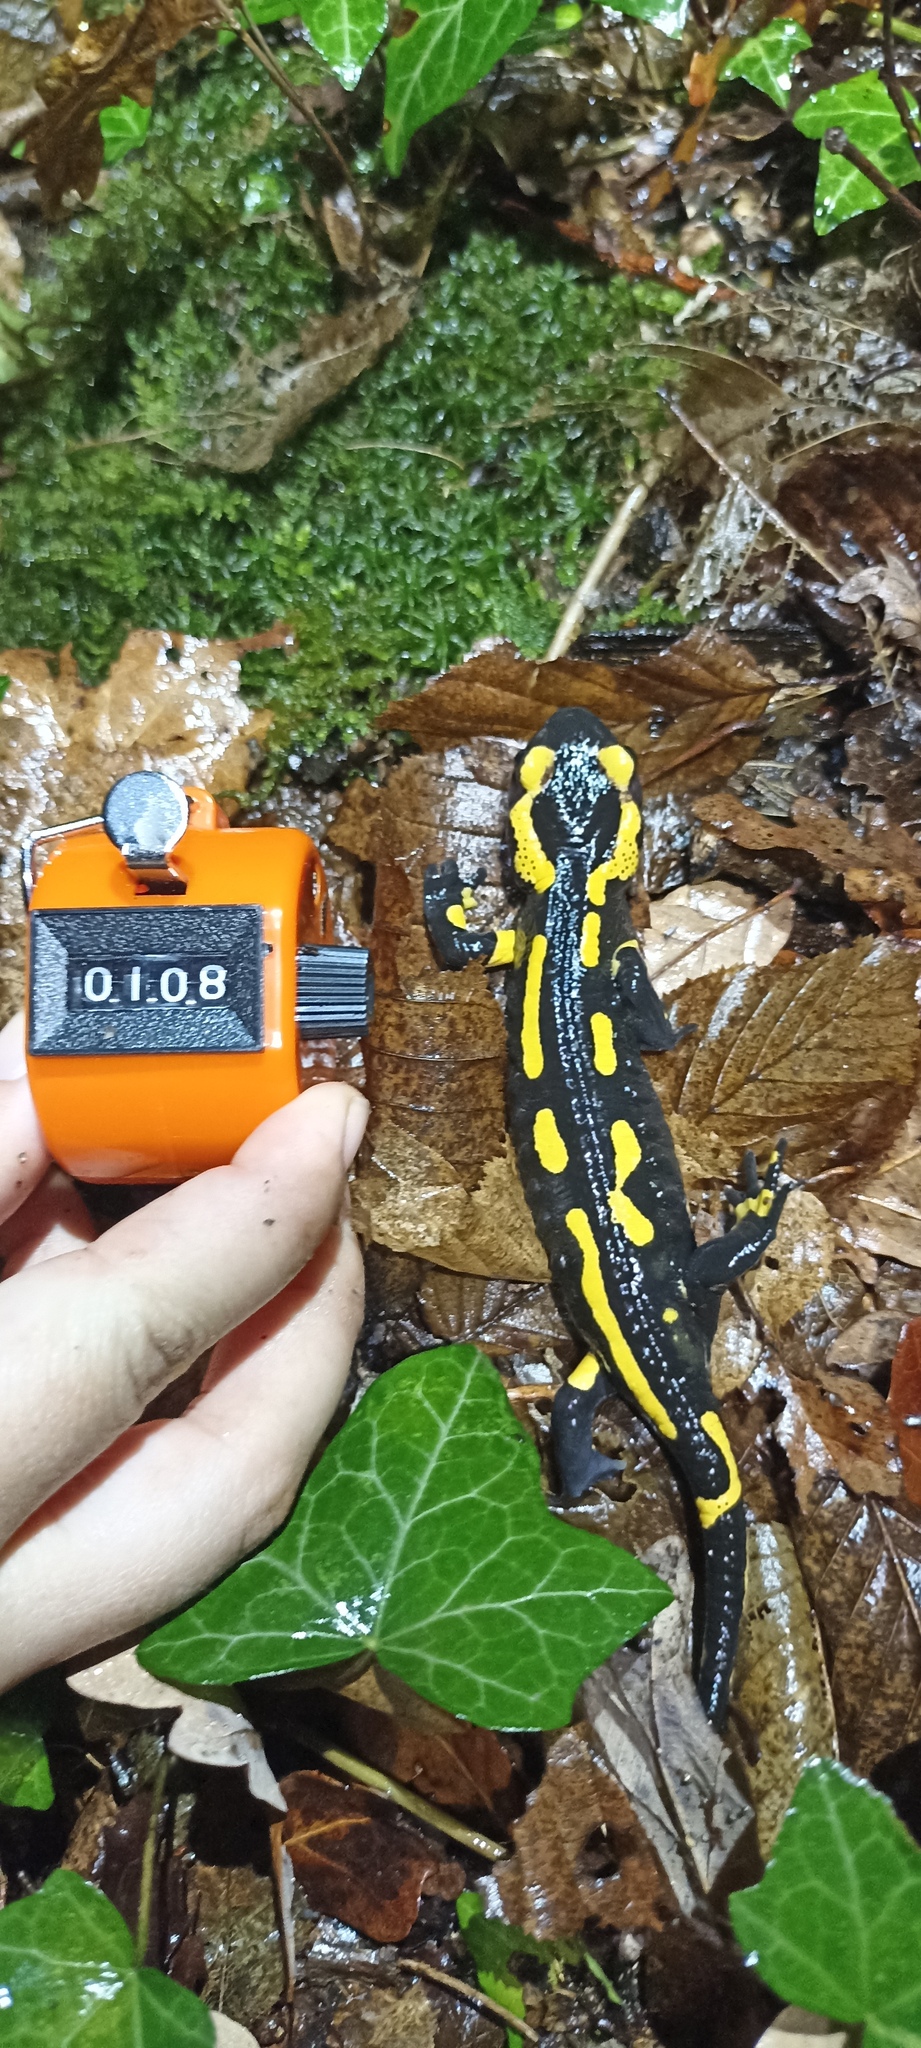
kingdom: Animalia
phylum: Chordata
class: Amphibia
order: Caudata
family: Salamandridae
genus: Salamandra
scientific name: Salamandra salamandra
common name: Fire salamander
